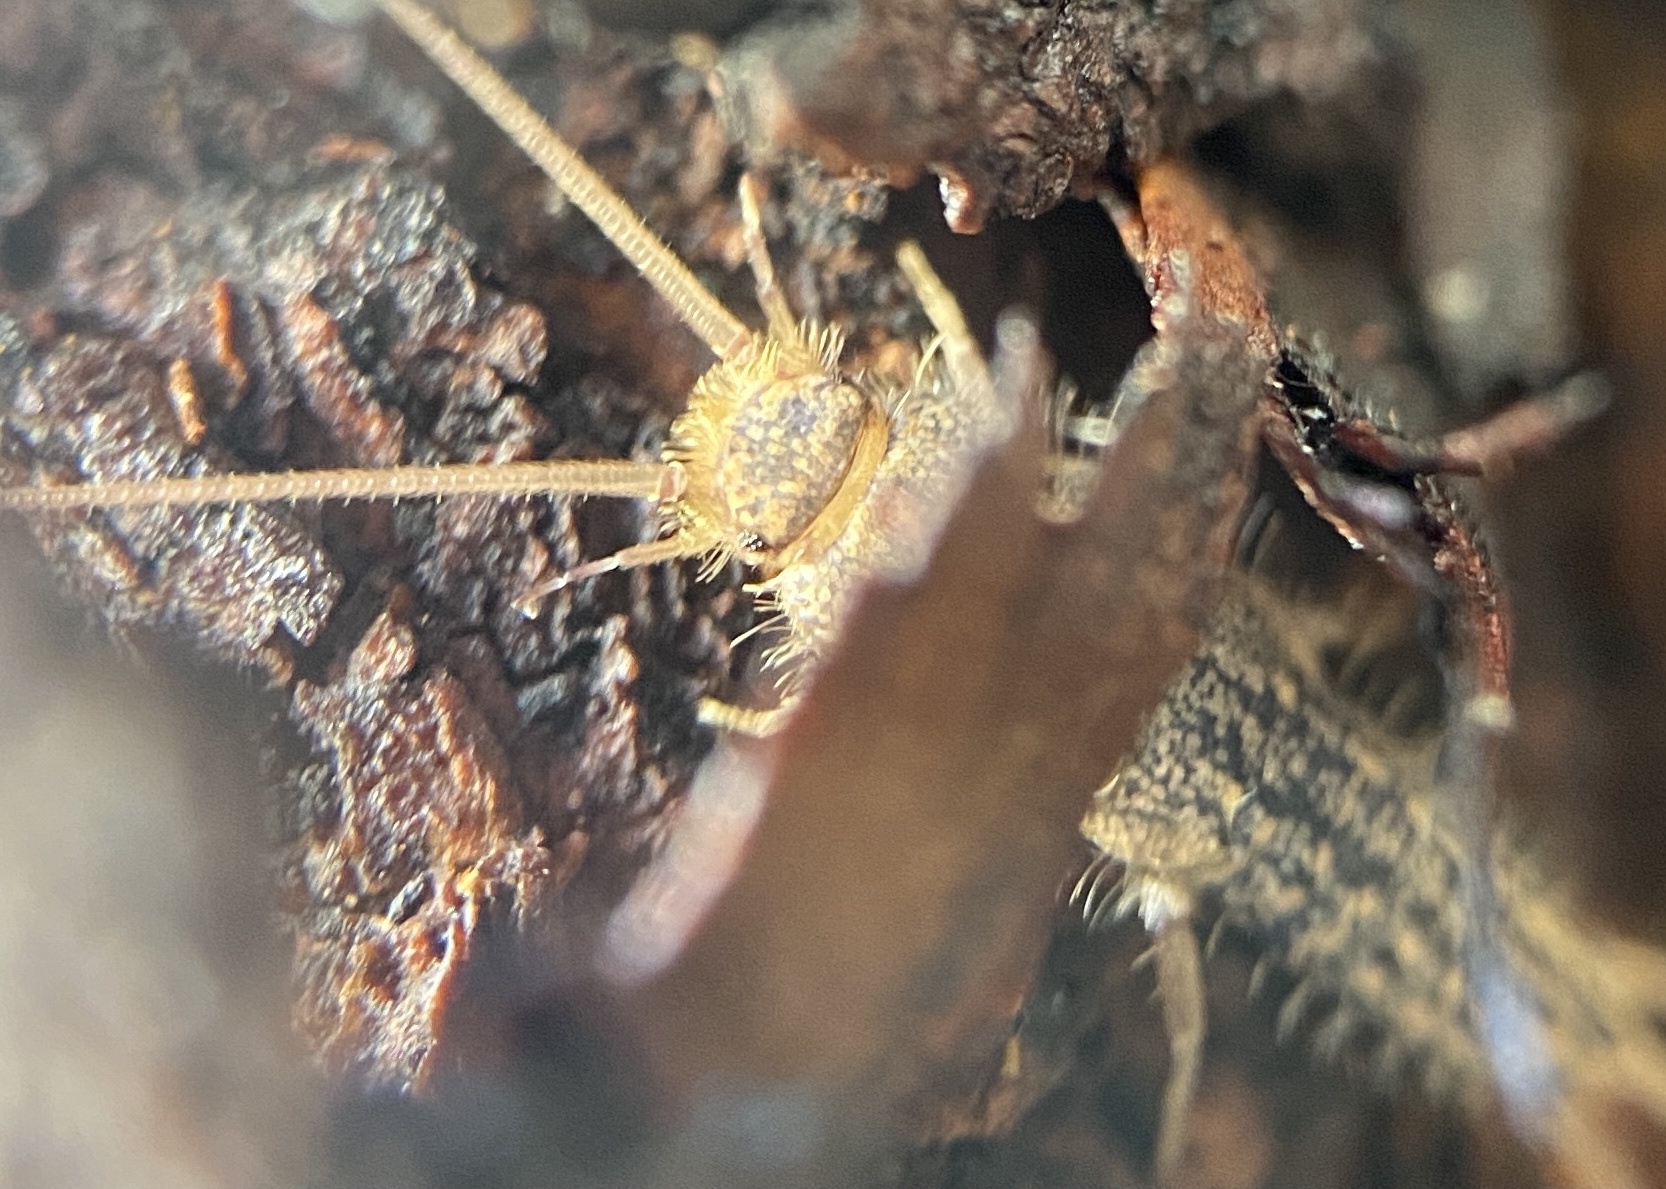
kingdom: Animalia
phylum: Arthropoda
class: Insecta
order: Zygentoma
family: Lepismatidae
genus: Ctenolepisma
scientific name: Ctenolepisma lineata
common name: Four-lined silverfish
